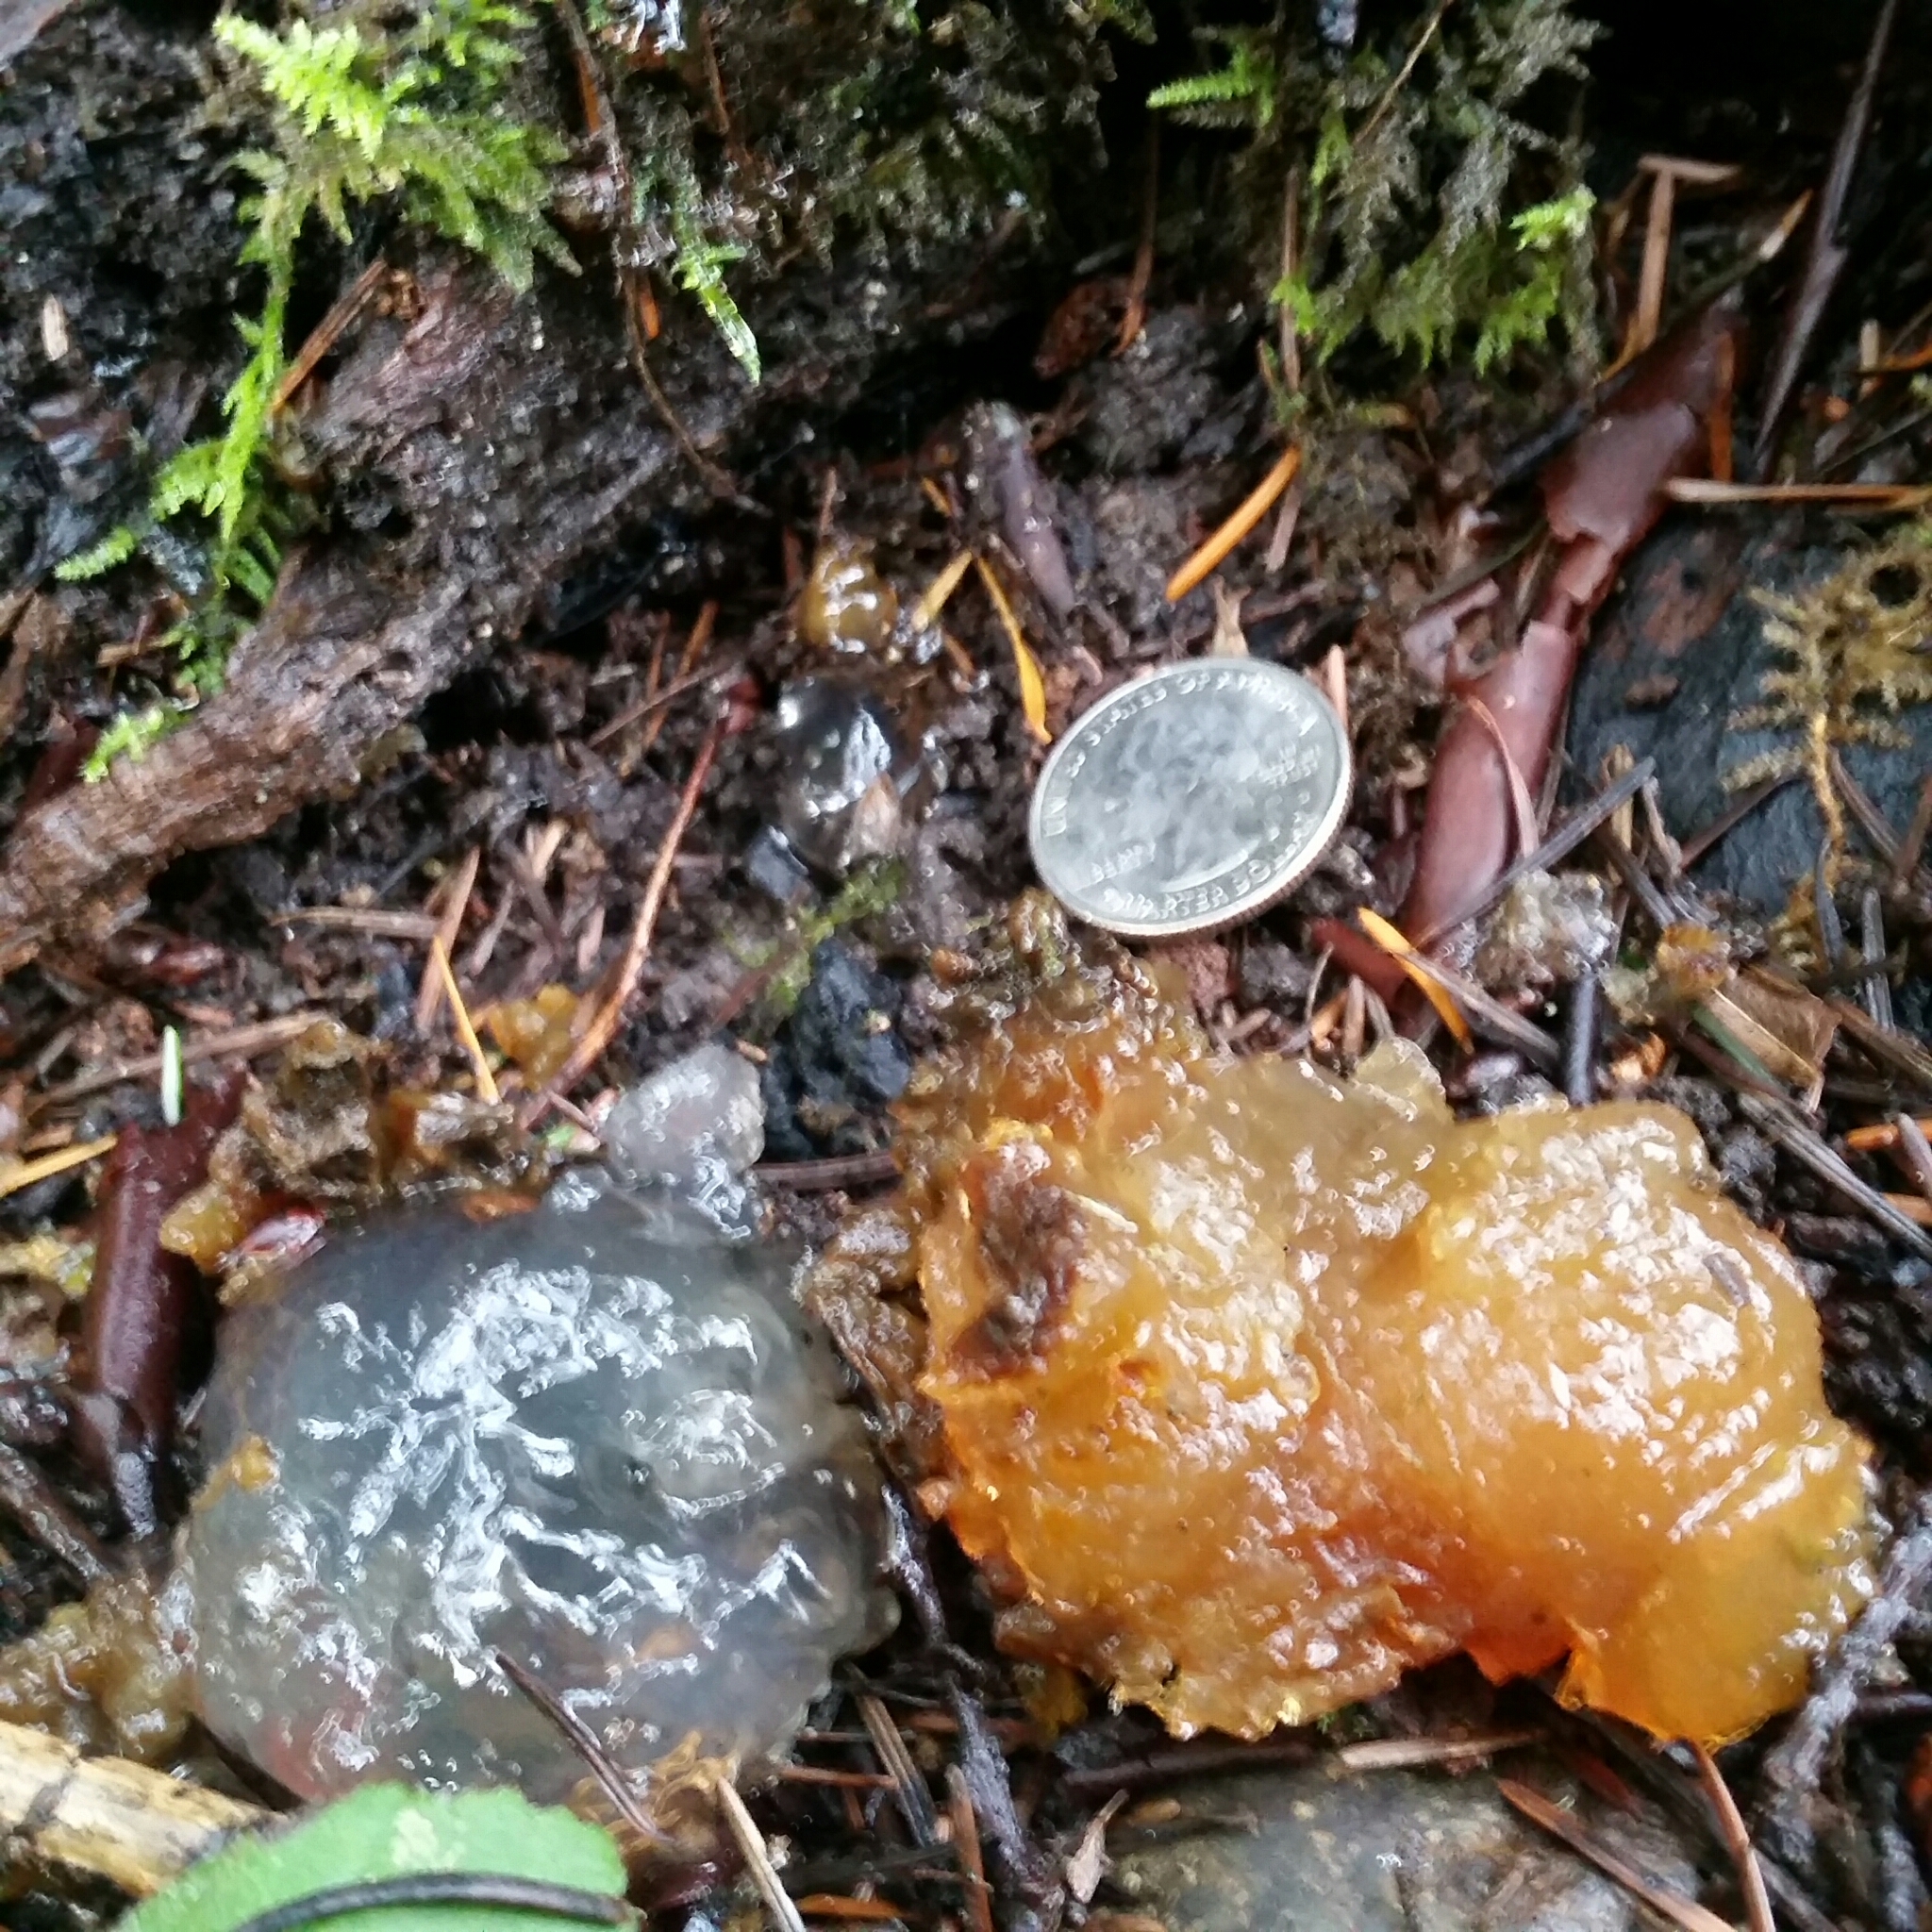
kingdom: Fungi
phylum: Basidiomycota
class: Agaricomycetes
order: Auriculariales
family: Hyaloriaceae
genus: Myxarium
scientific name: Myxarium nucleatum
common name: Crystal brain fungus
